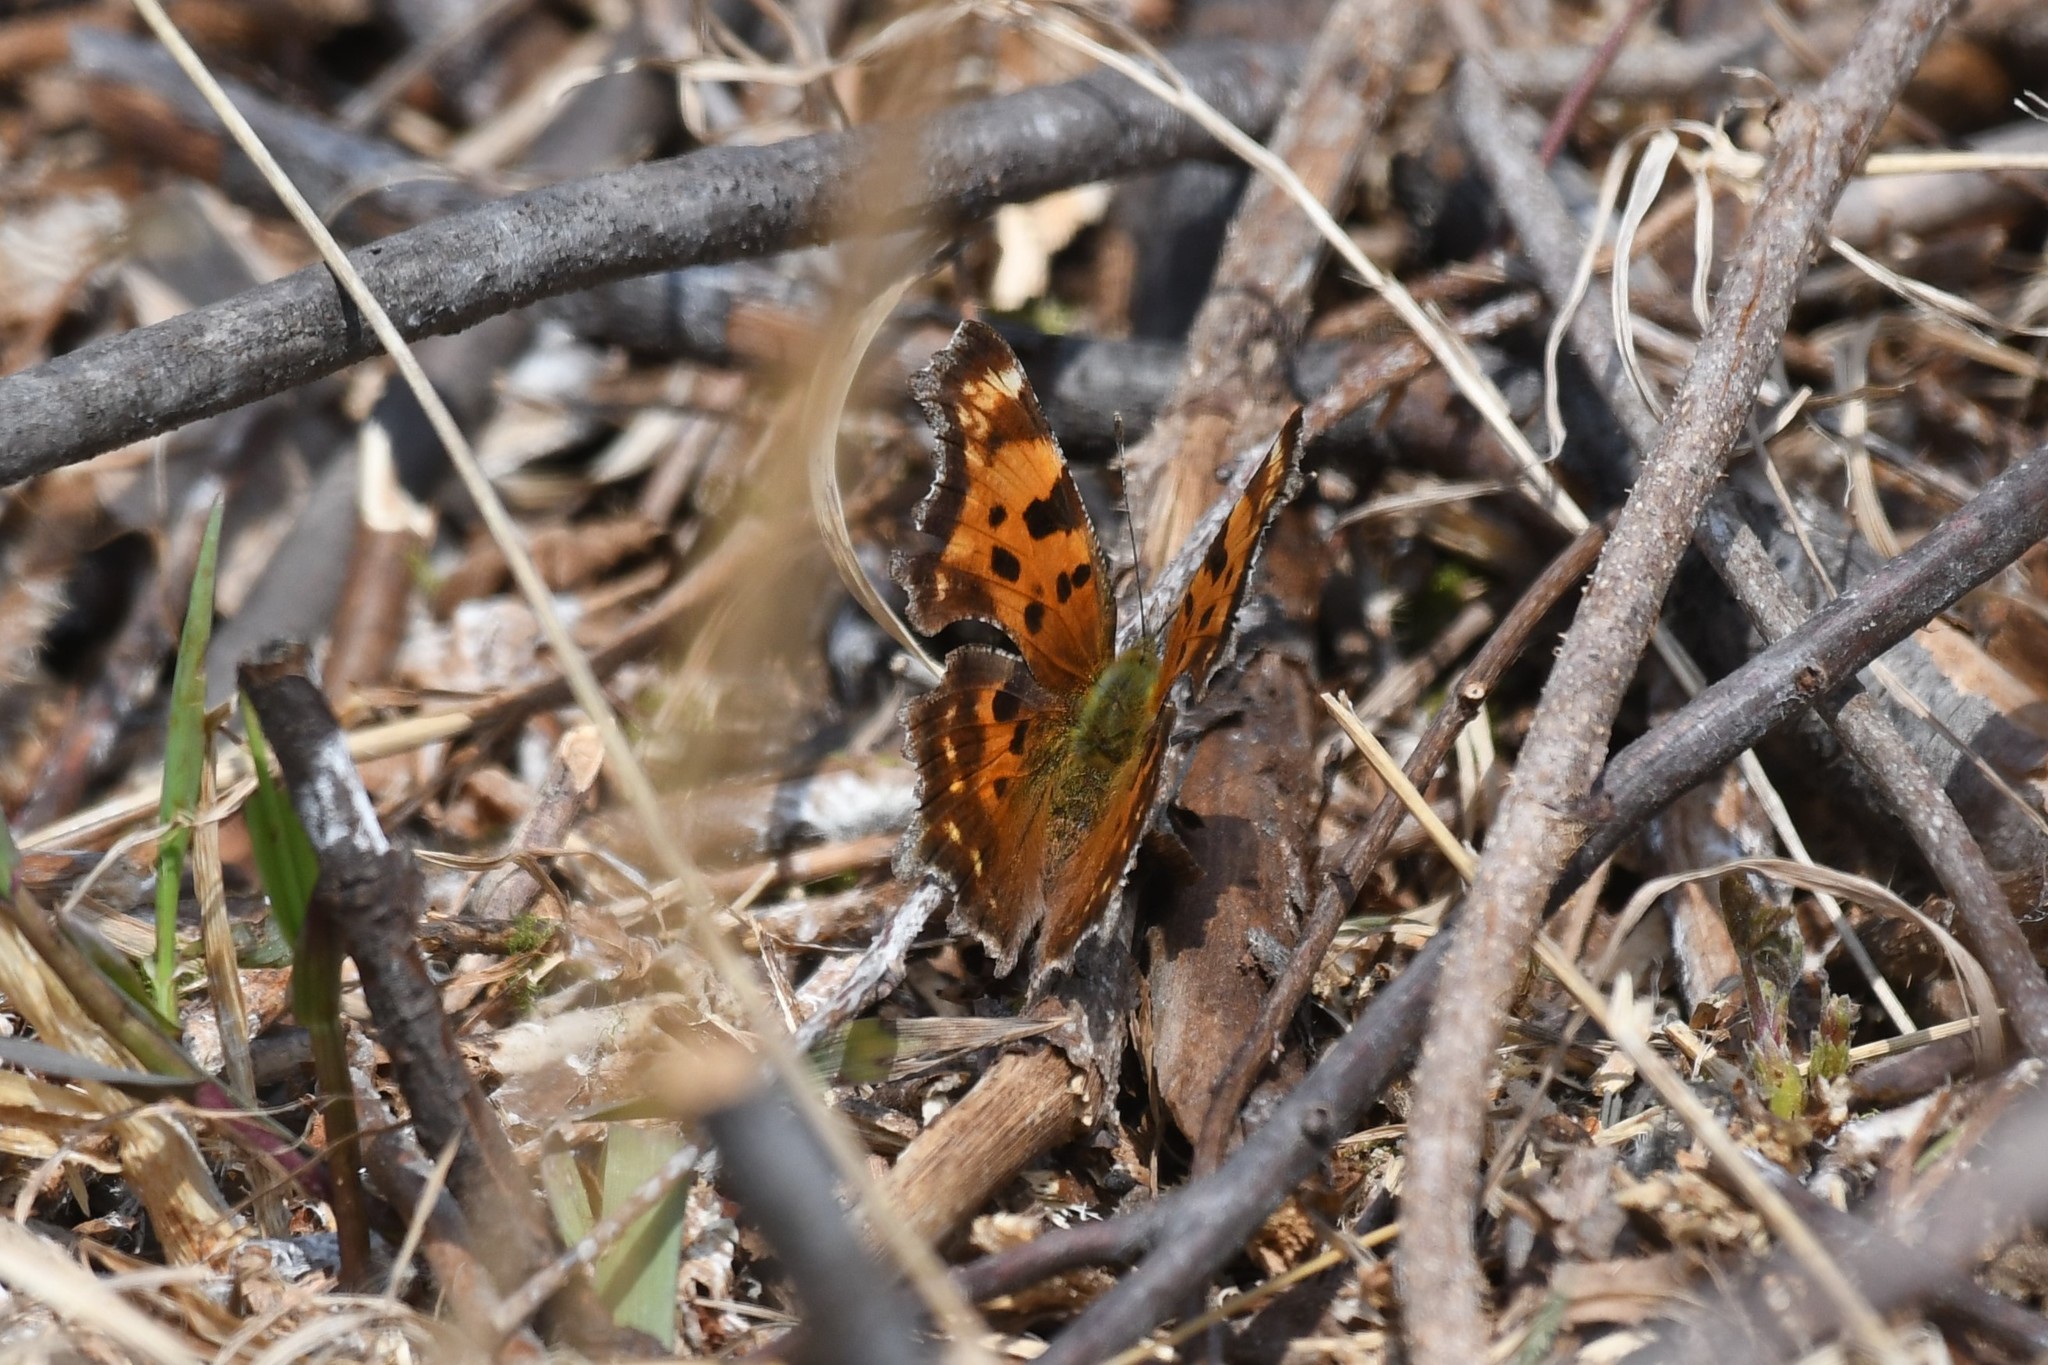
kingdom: Animalia
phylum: Arthropoda
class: Insecta
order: Lepidoptera
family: Nymphalidae
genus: Polygonia
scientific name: Polygonia faunus
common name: Green comma
